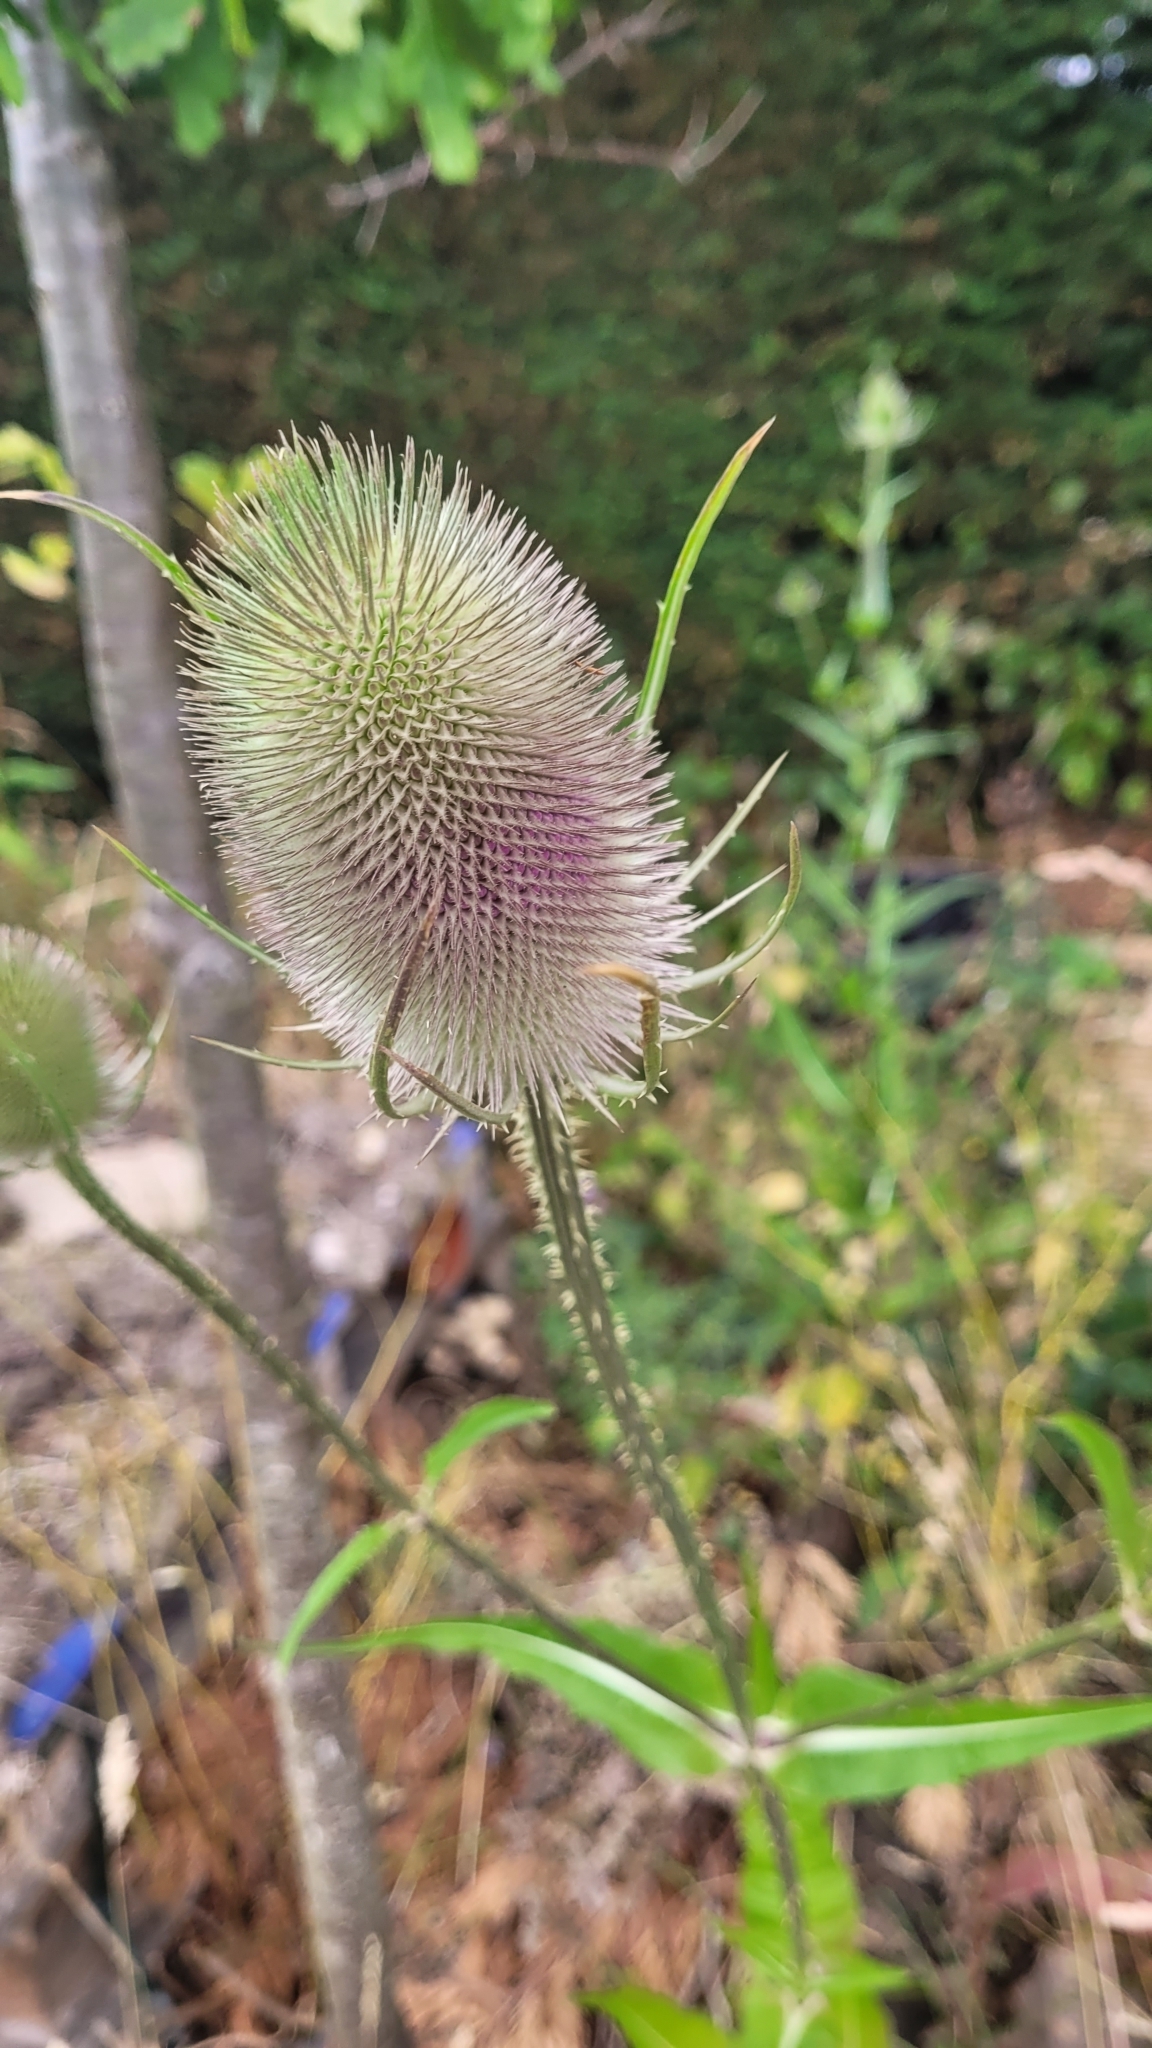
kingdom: Plantae
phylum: Tracheophyta
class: Magnoliopsida
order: Dipsacales
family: Caprifoliaceae
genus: Dipsacus
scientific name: Dipsacus fullonum
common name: Teasel
